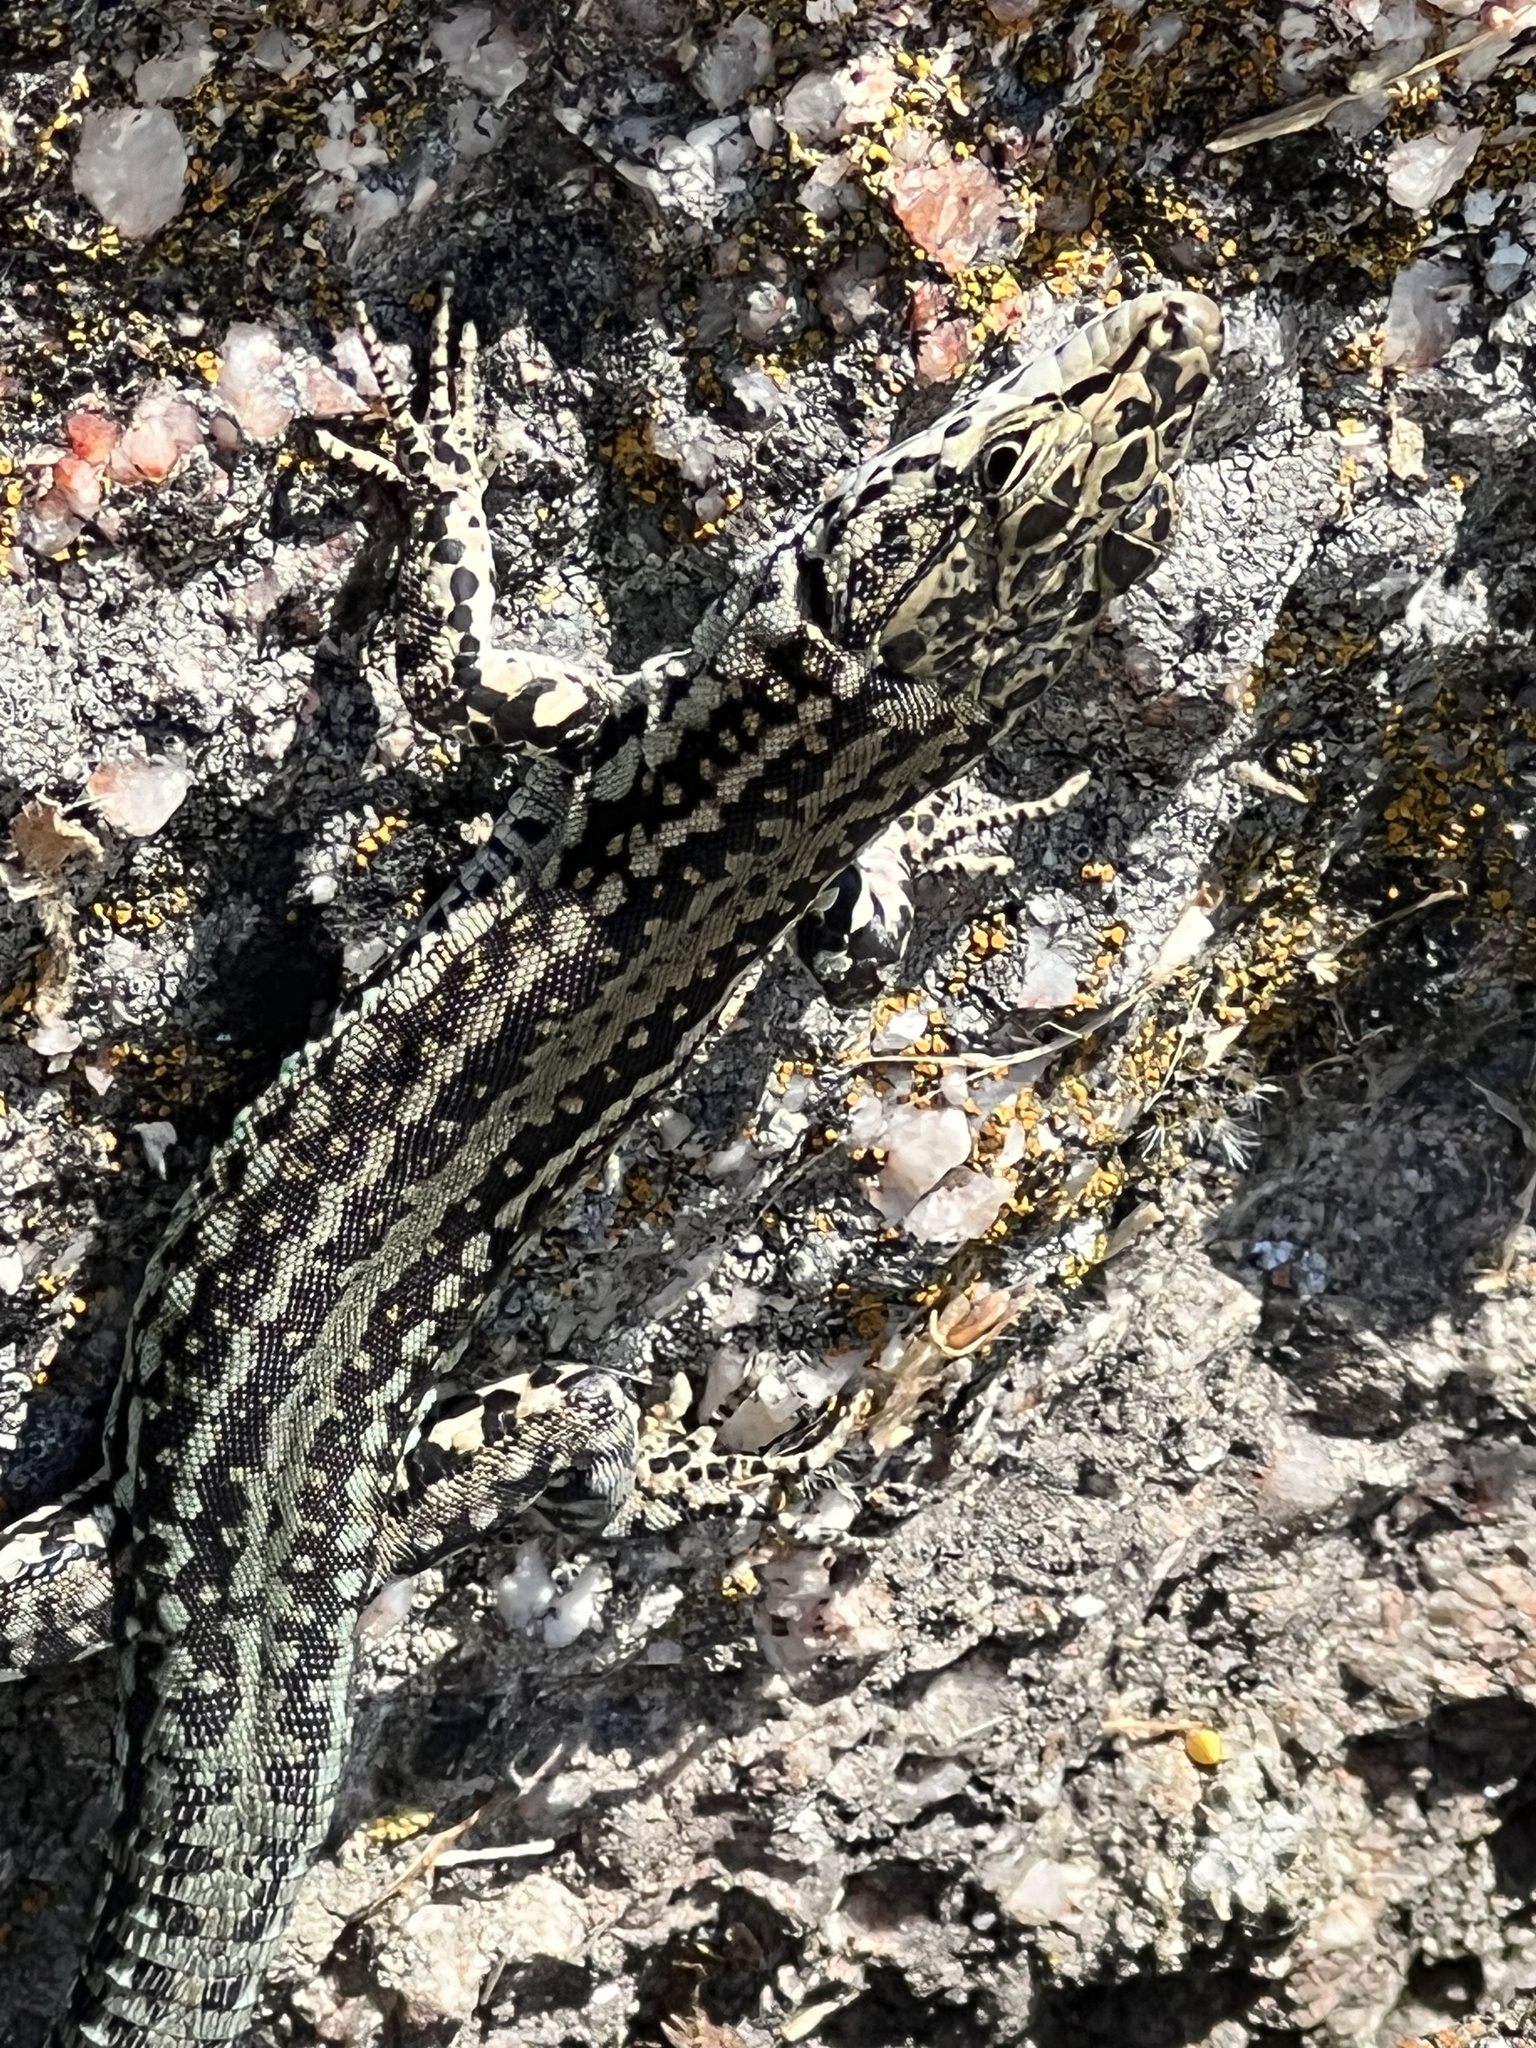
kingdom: Animalia
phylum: Chordata
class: Squamata
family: Lacertidae
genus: Podarcis
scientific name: Podarcis
